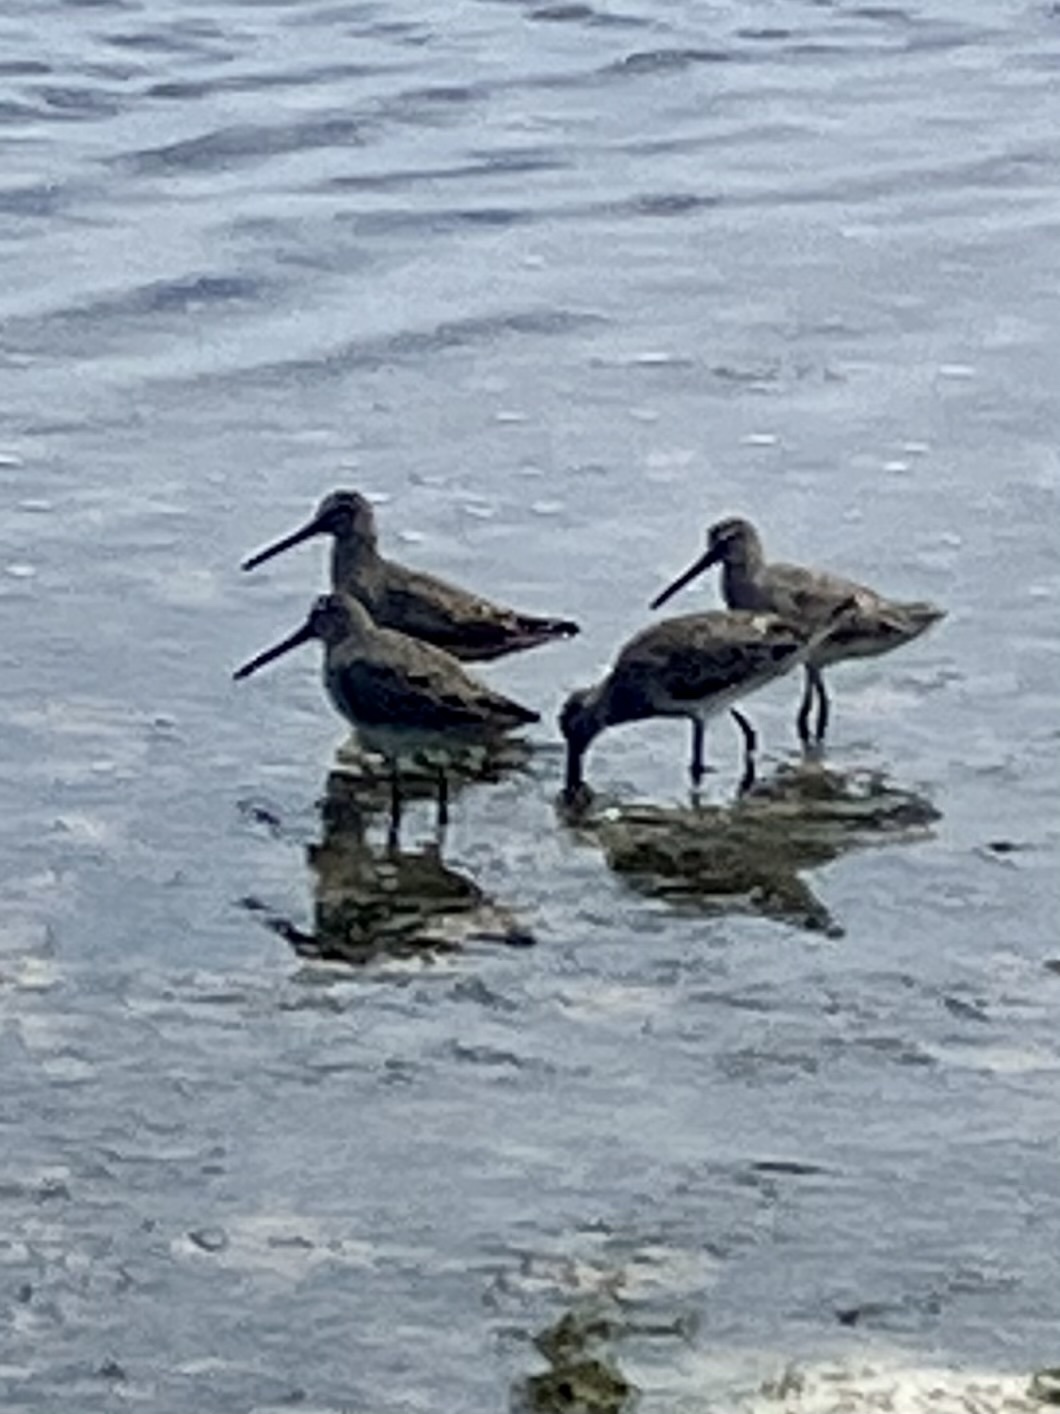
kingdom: Animalia
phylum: Chordata
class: Aves
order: Charadriiformes
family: Scolopacidae
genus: Limnodromus
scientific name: Limnodromus griseus
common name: Short-billed dowitcher
